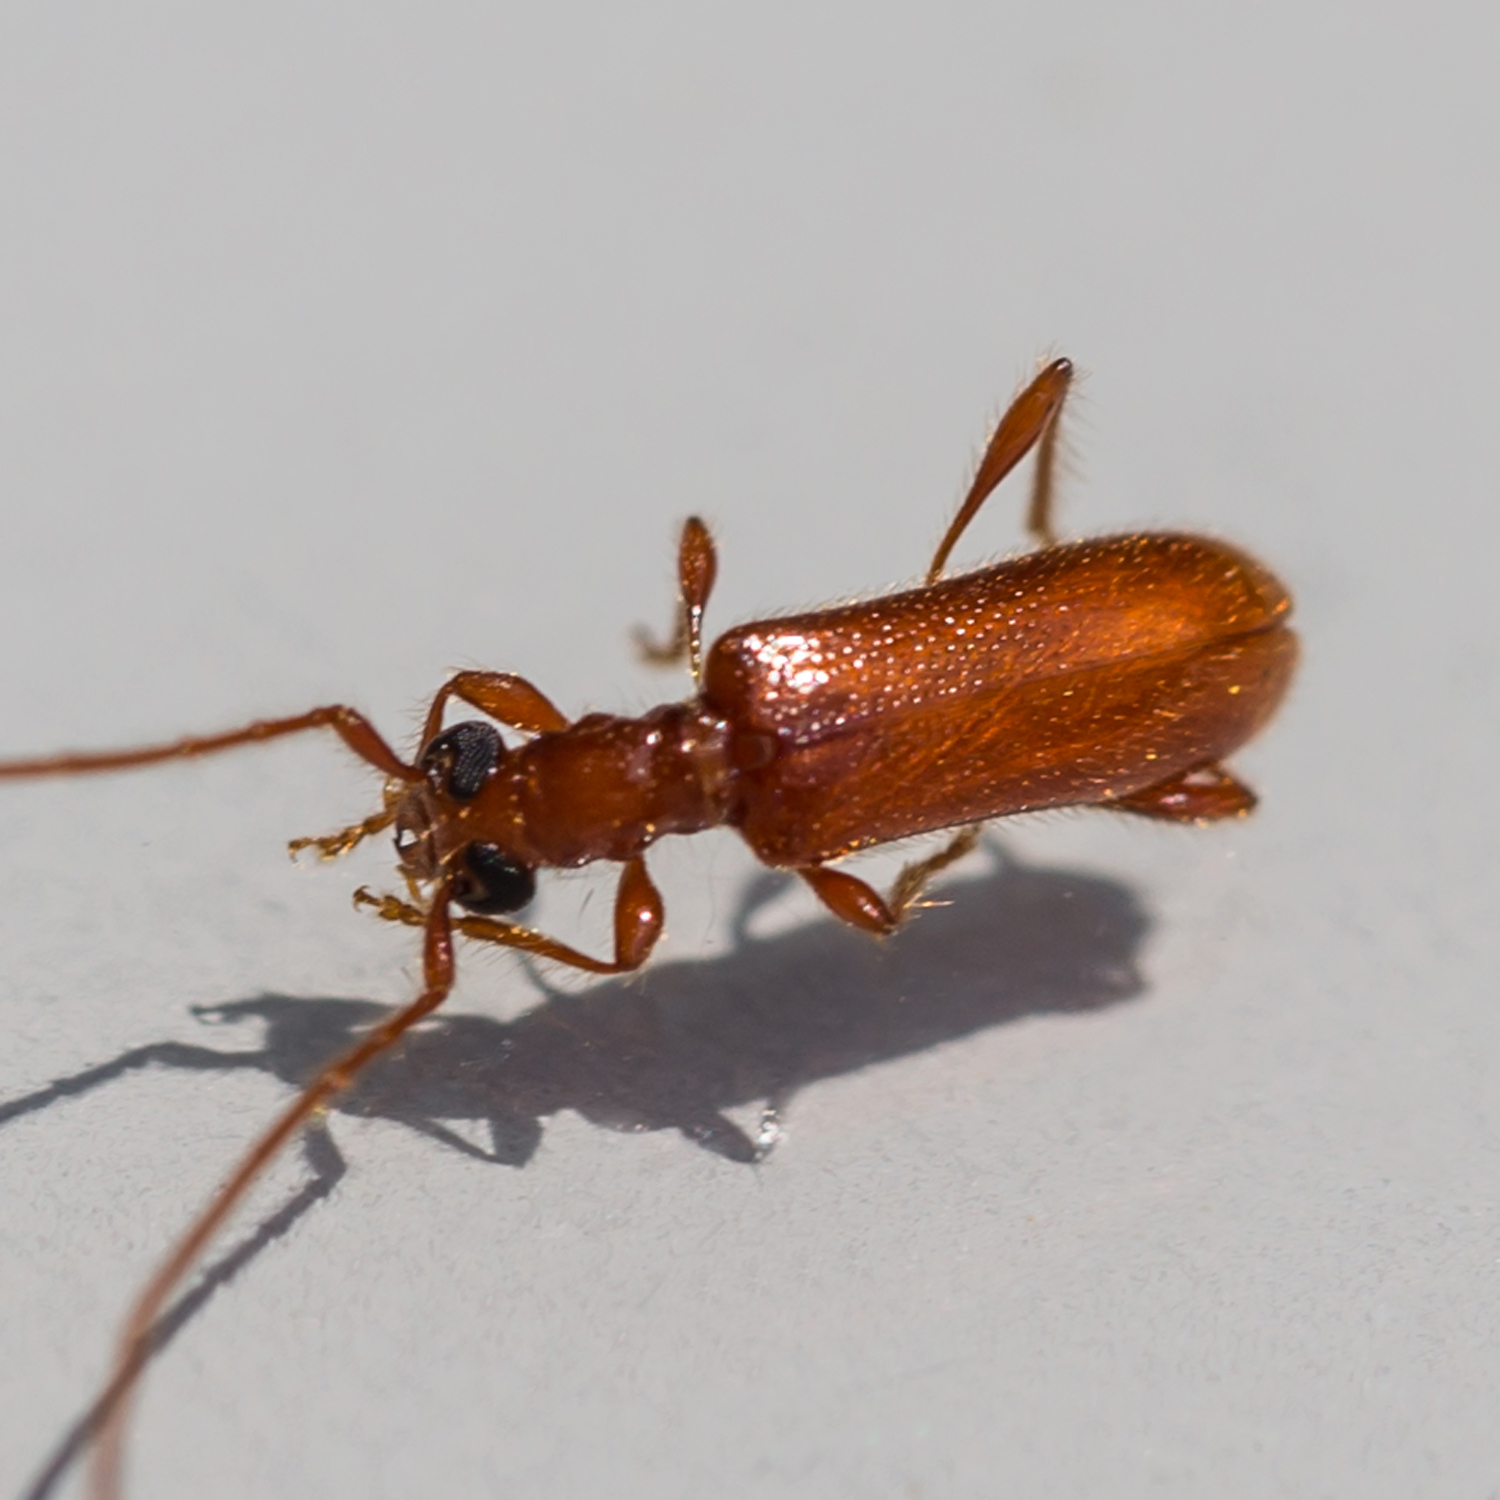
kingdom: Animalia
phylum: Arthropoda
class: Insecta
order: Coleoptera
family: Cerambycidae
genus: Obrium
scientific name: Obrium rufulum
